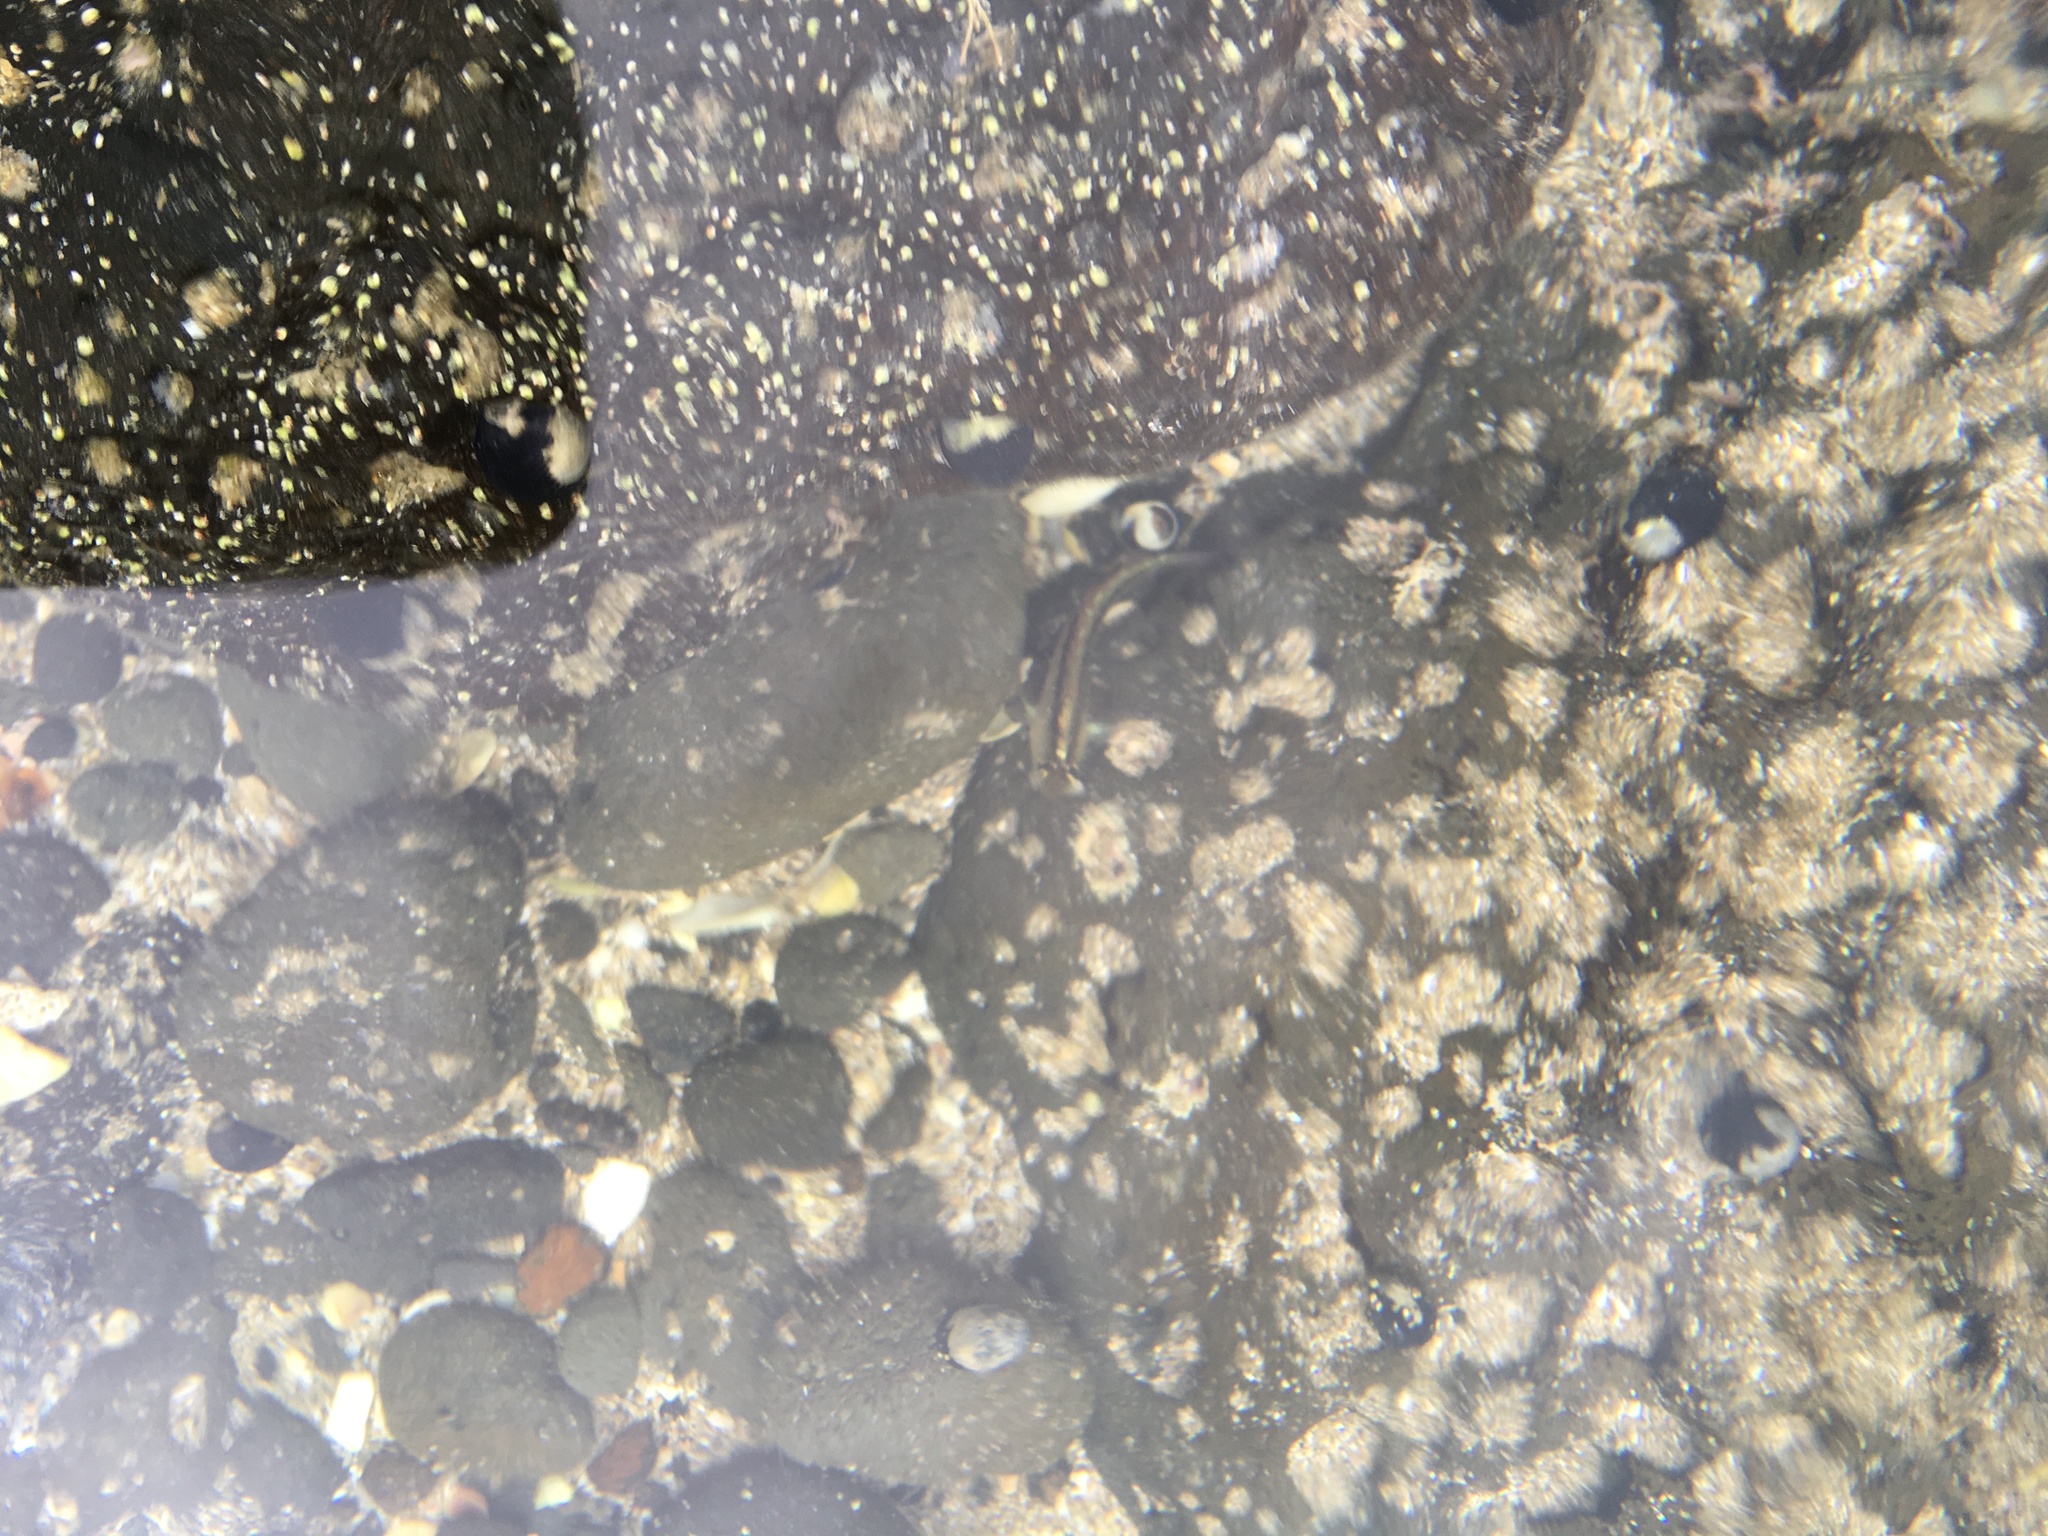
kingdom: Animalia
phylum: Chordata
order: Perciformes
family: Tripterygiidae
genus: Forsterygion
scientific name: Forsterygion lapillum
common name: Common triplefin
